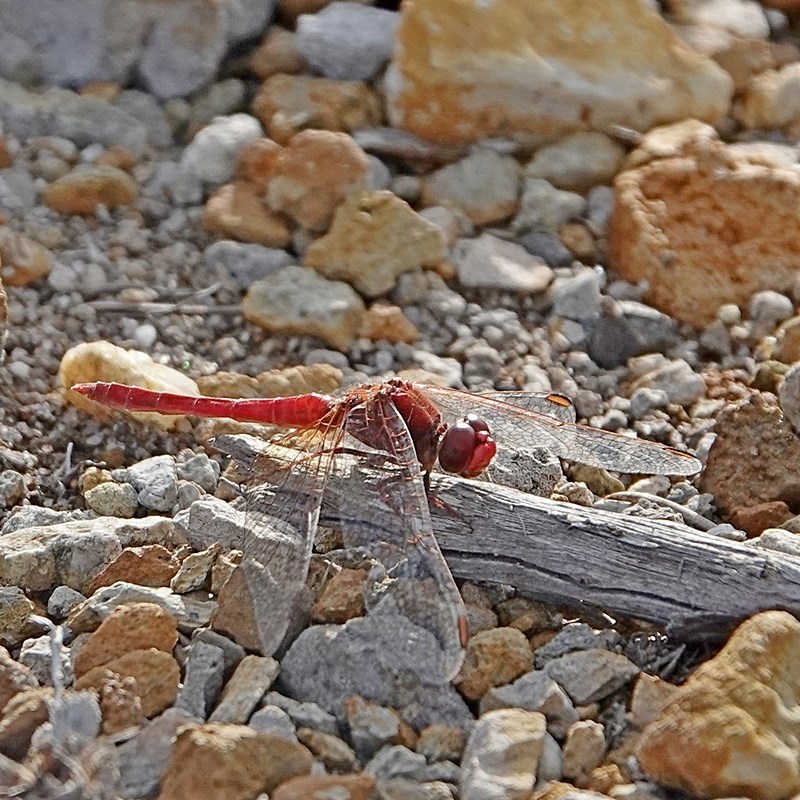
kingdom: Animalia
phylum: Arthropoda
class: Insecta
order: Odonata
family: Libellulidae
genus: Diplacodes
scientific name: Diplacodes haematodes
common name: Scarlet percher
